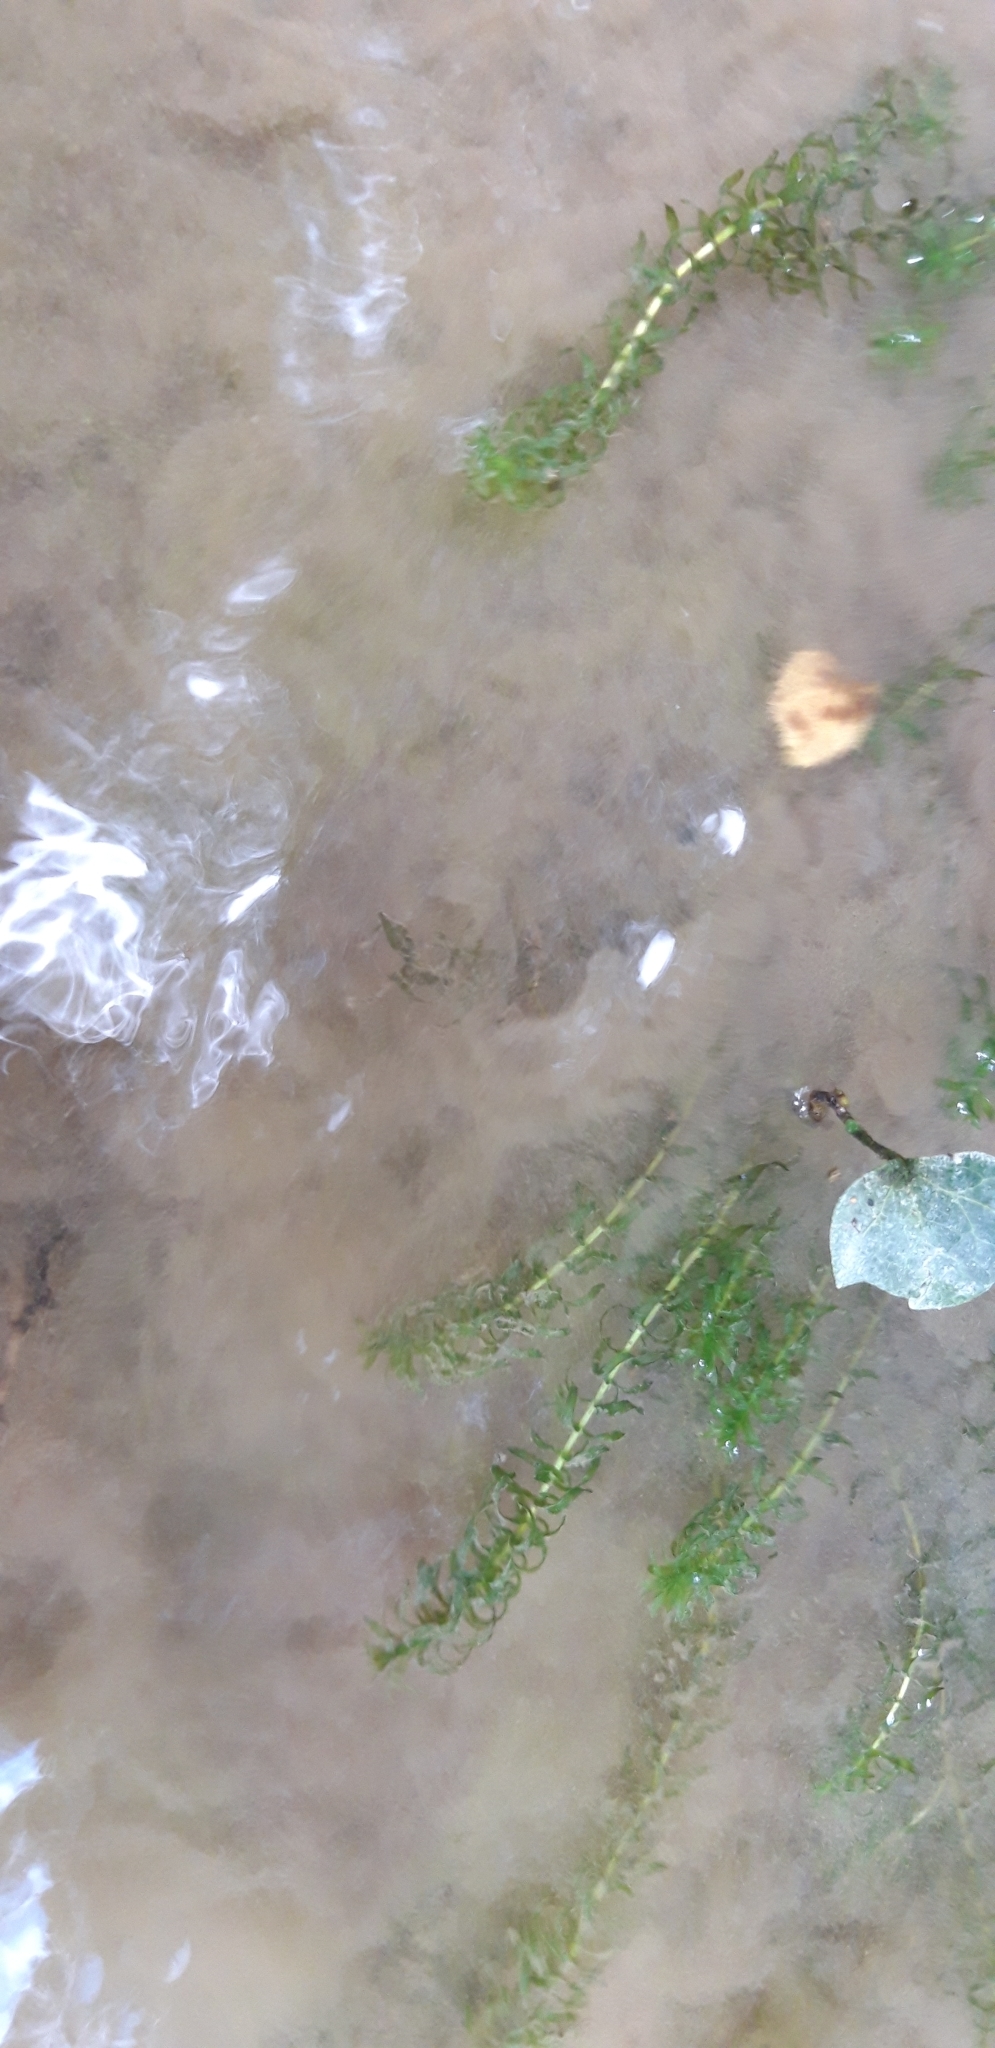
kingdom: Plantae
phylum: Tracheophyta
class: Liliopsida
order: Alismatales
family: Hydrocharitaceae
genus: Elodea
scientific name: Elodea nuttallii
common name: Nuttall's waterweed
